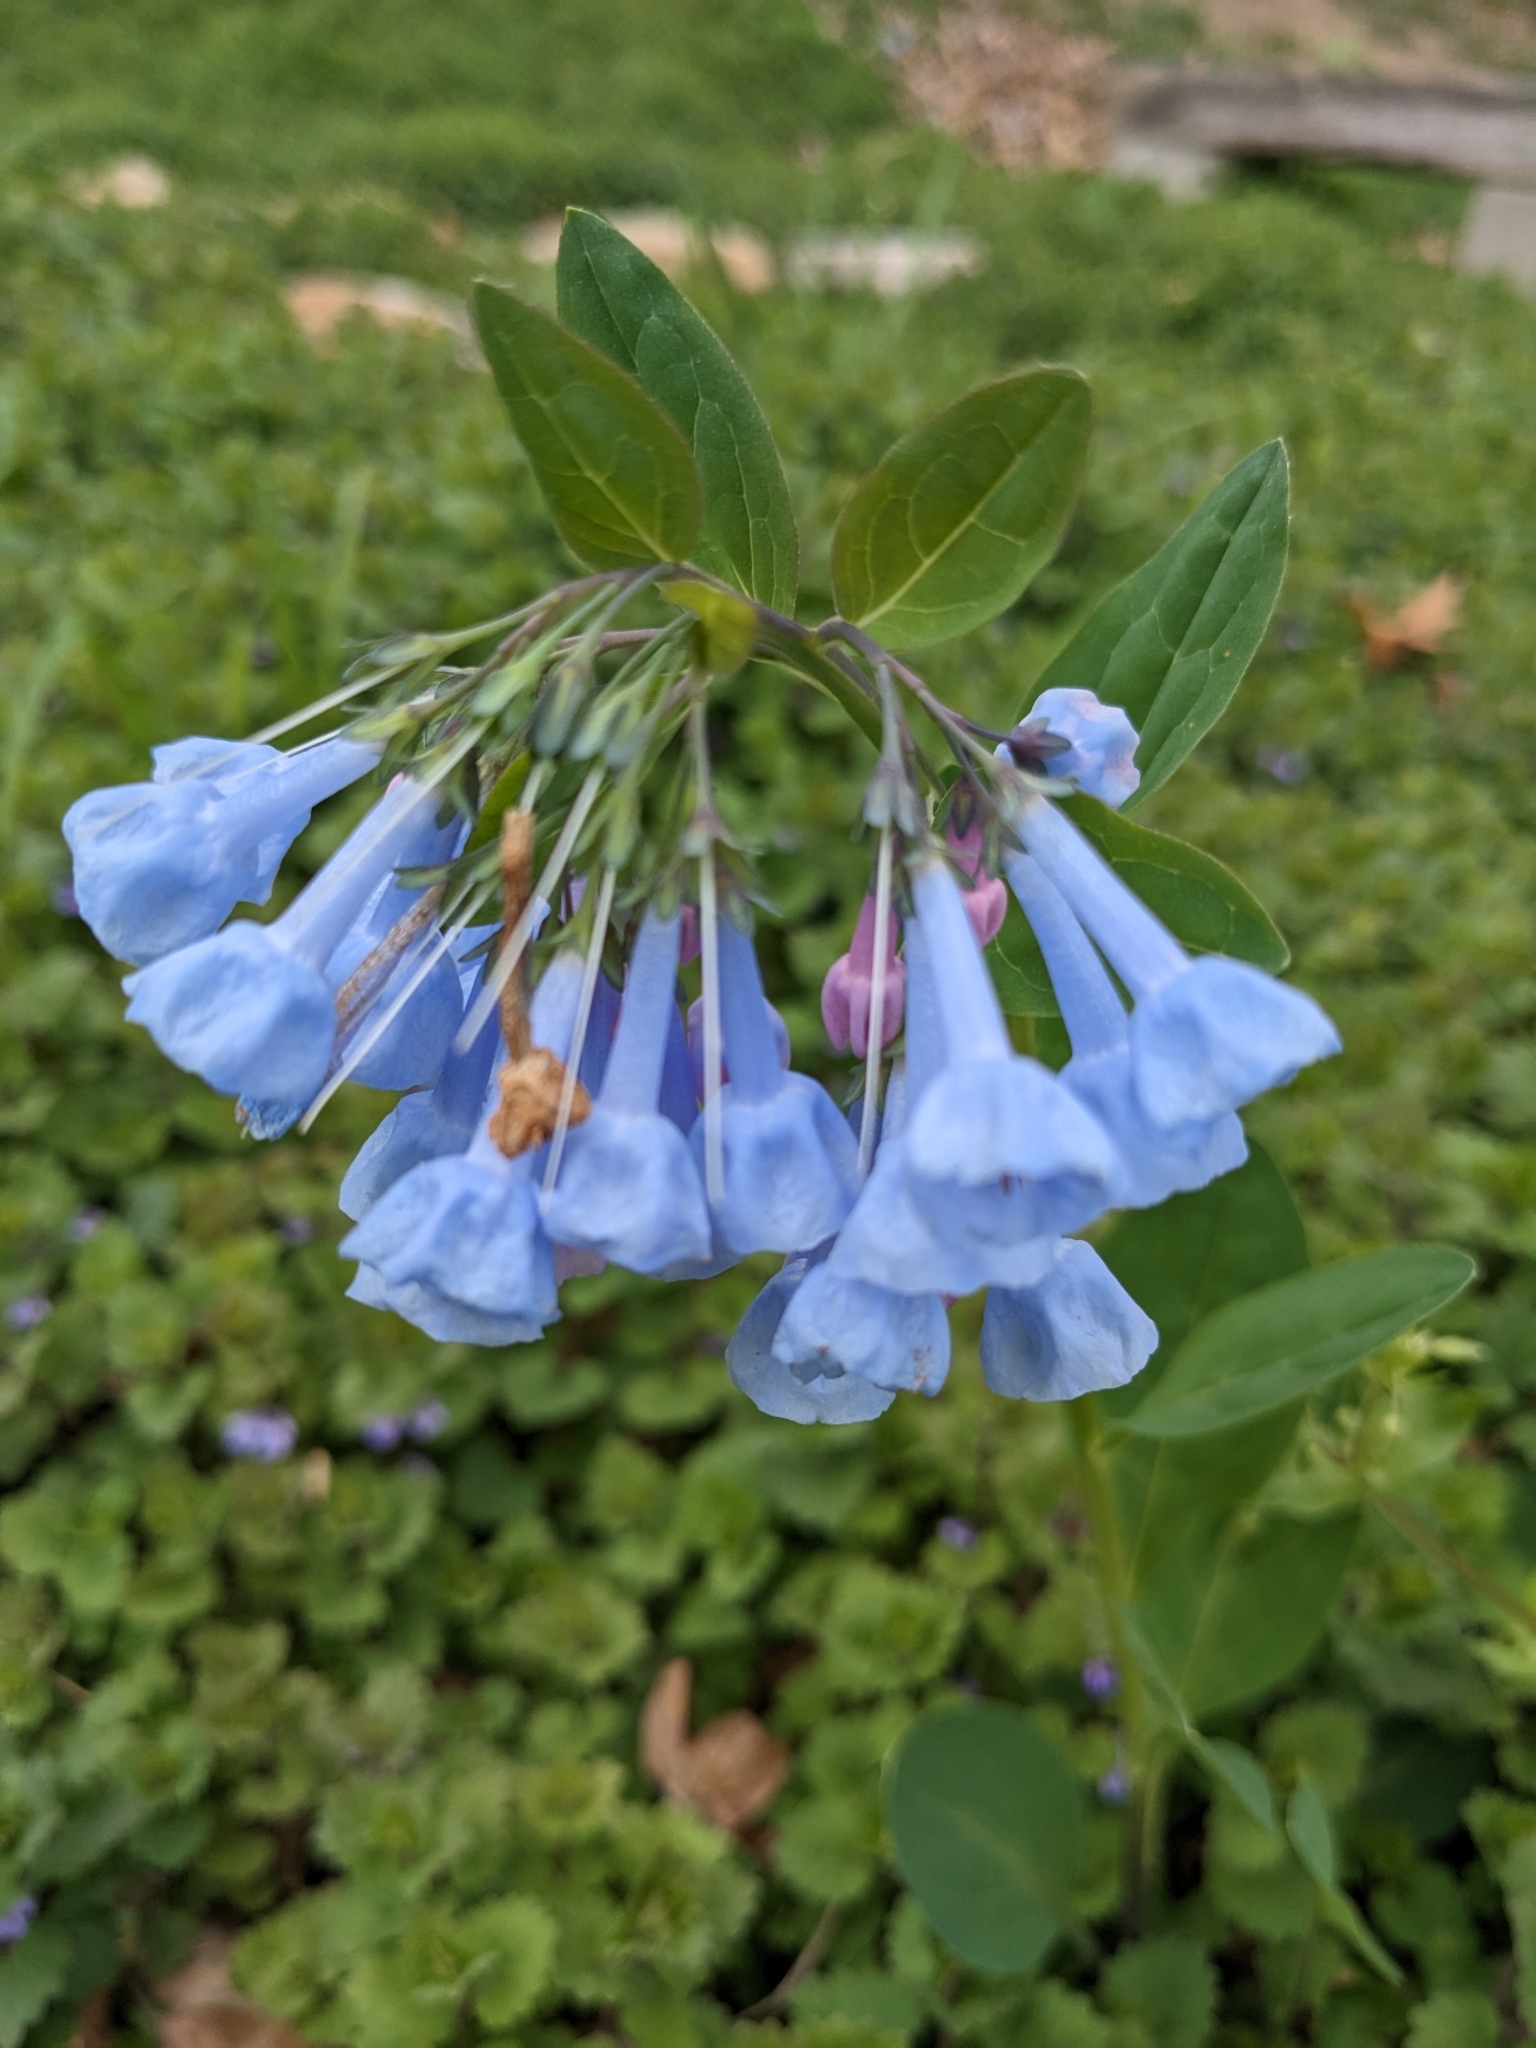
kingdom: Plantae
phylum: Tracheophyta
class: Magnoliopsida
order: Boraginales
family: Boraginaceae
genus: Mertensia
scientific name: Mertensia virginica
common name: Virginia bluebells
